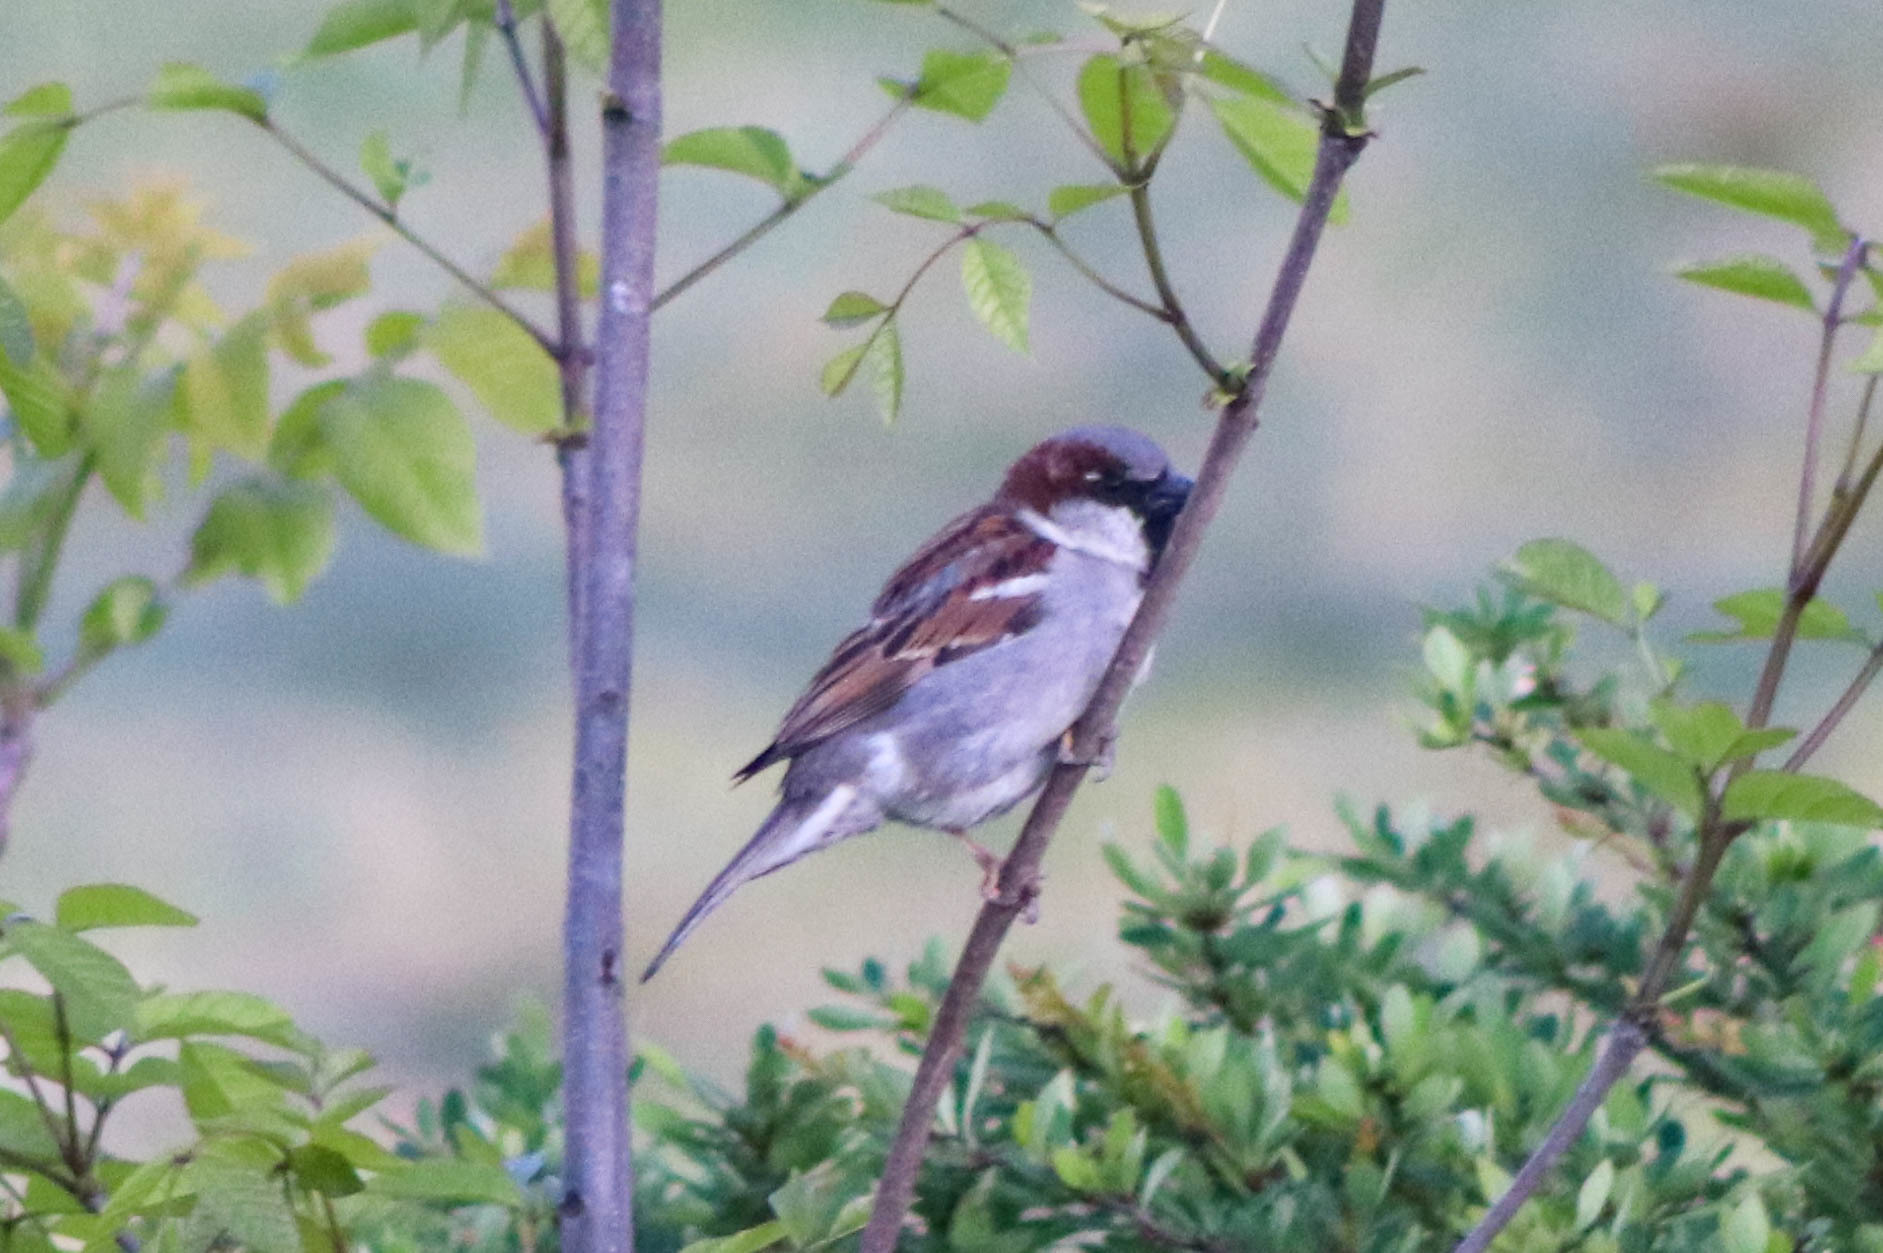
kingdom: Animalia
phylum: Chordata
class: Aves
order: Passeriformes
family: Passeridae
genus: Passer
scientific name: Passer domesticus
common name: House sparrow
